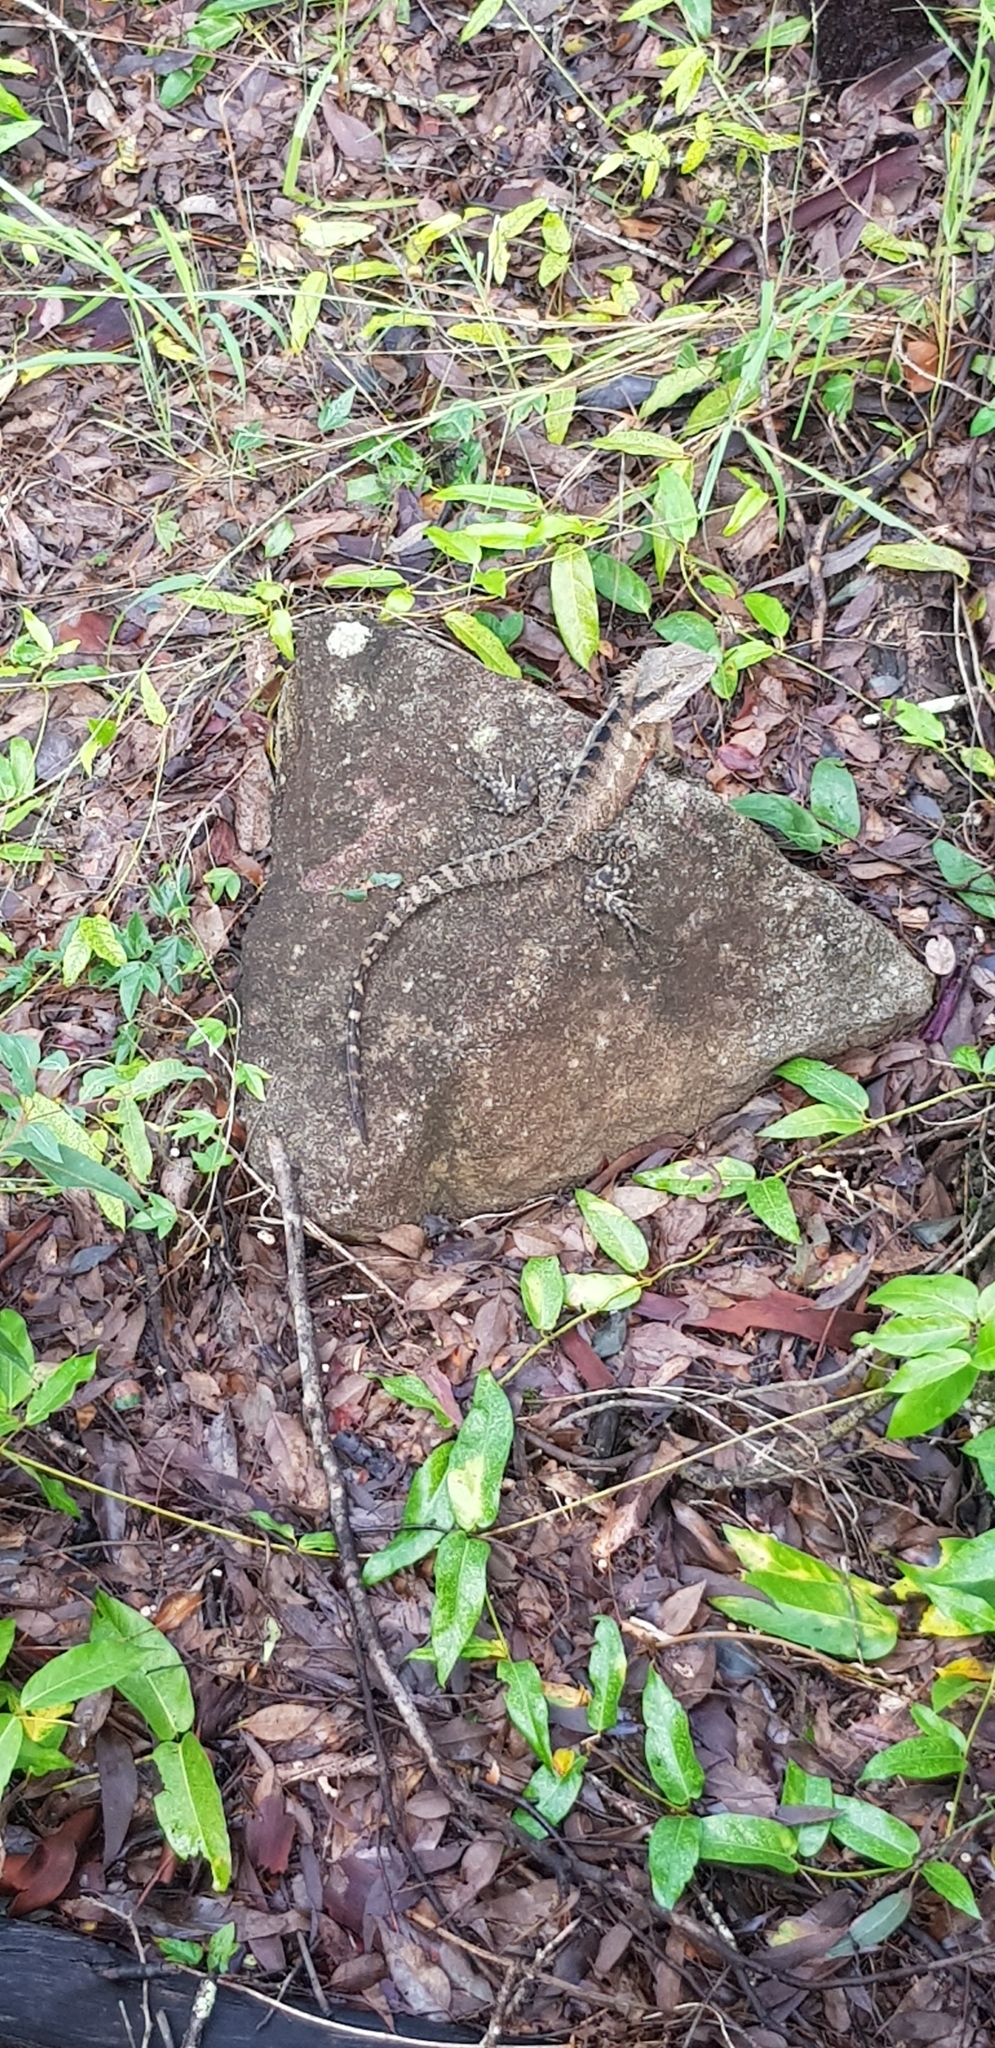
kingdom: Animalia
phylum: Chordata
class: Squamata
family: Agamidae
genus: Intellagama
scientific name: Intellagama lesueurii
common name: Eastern water dragon
